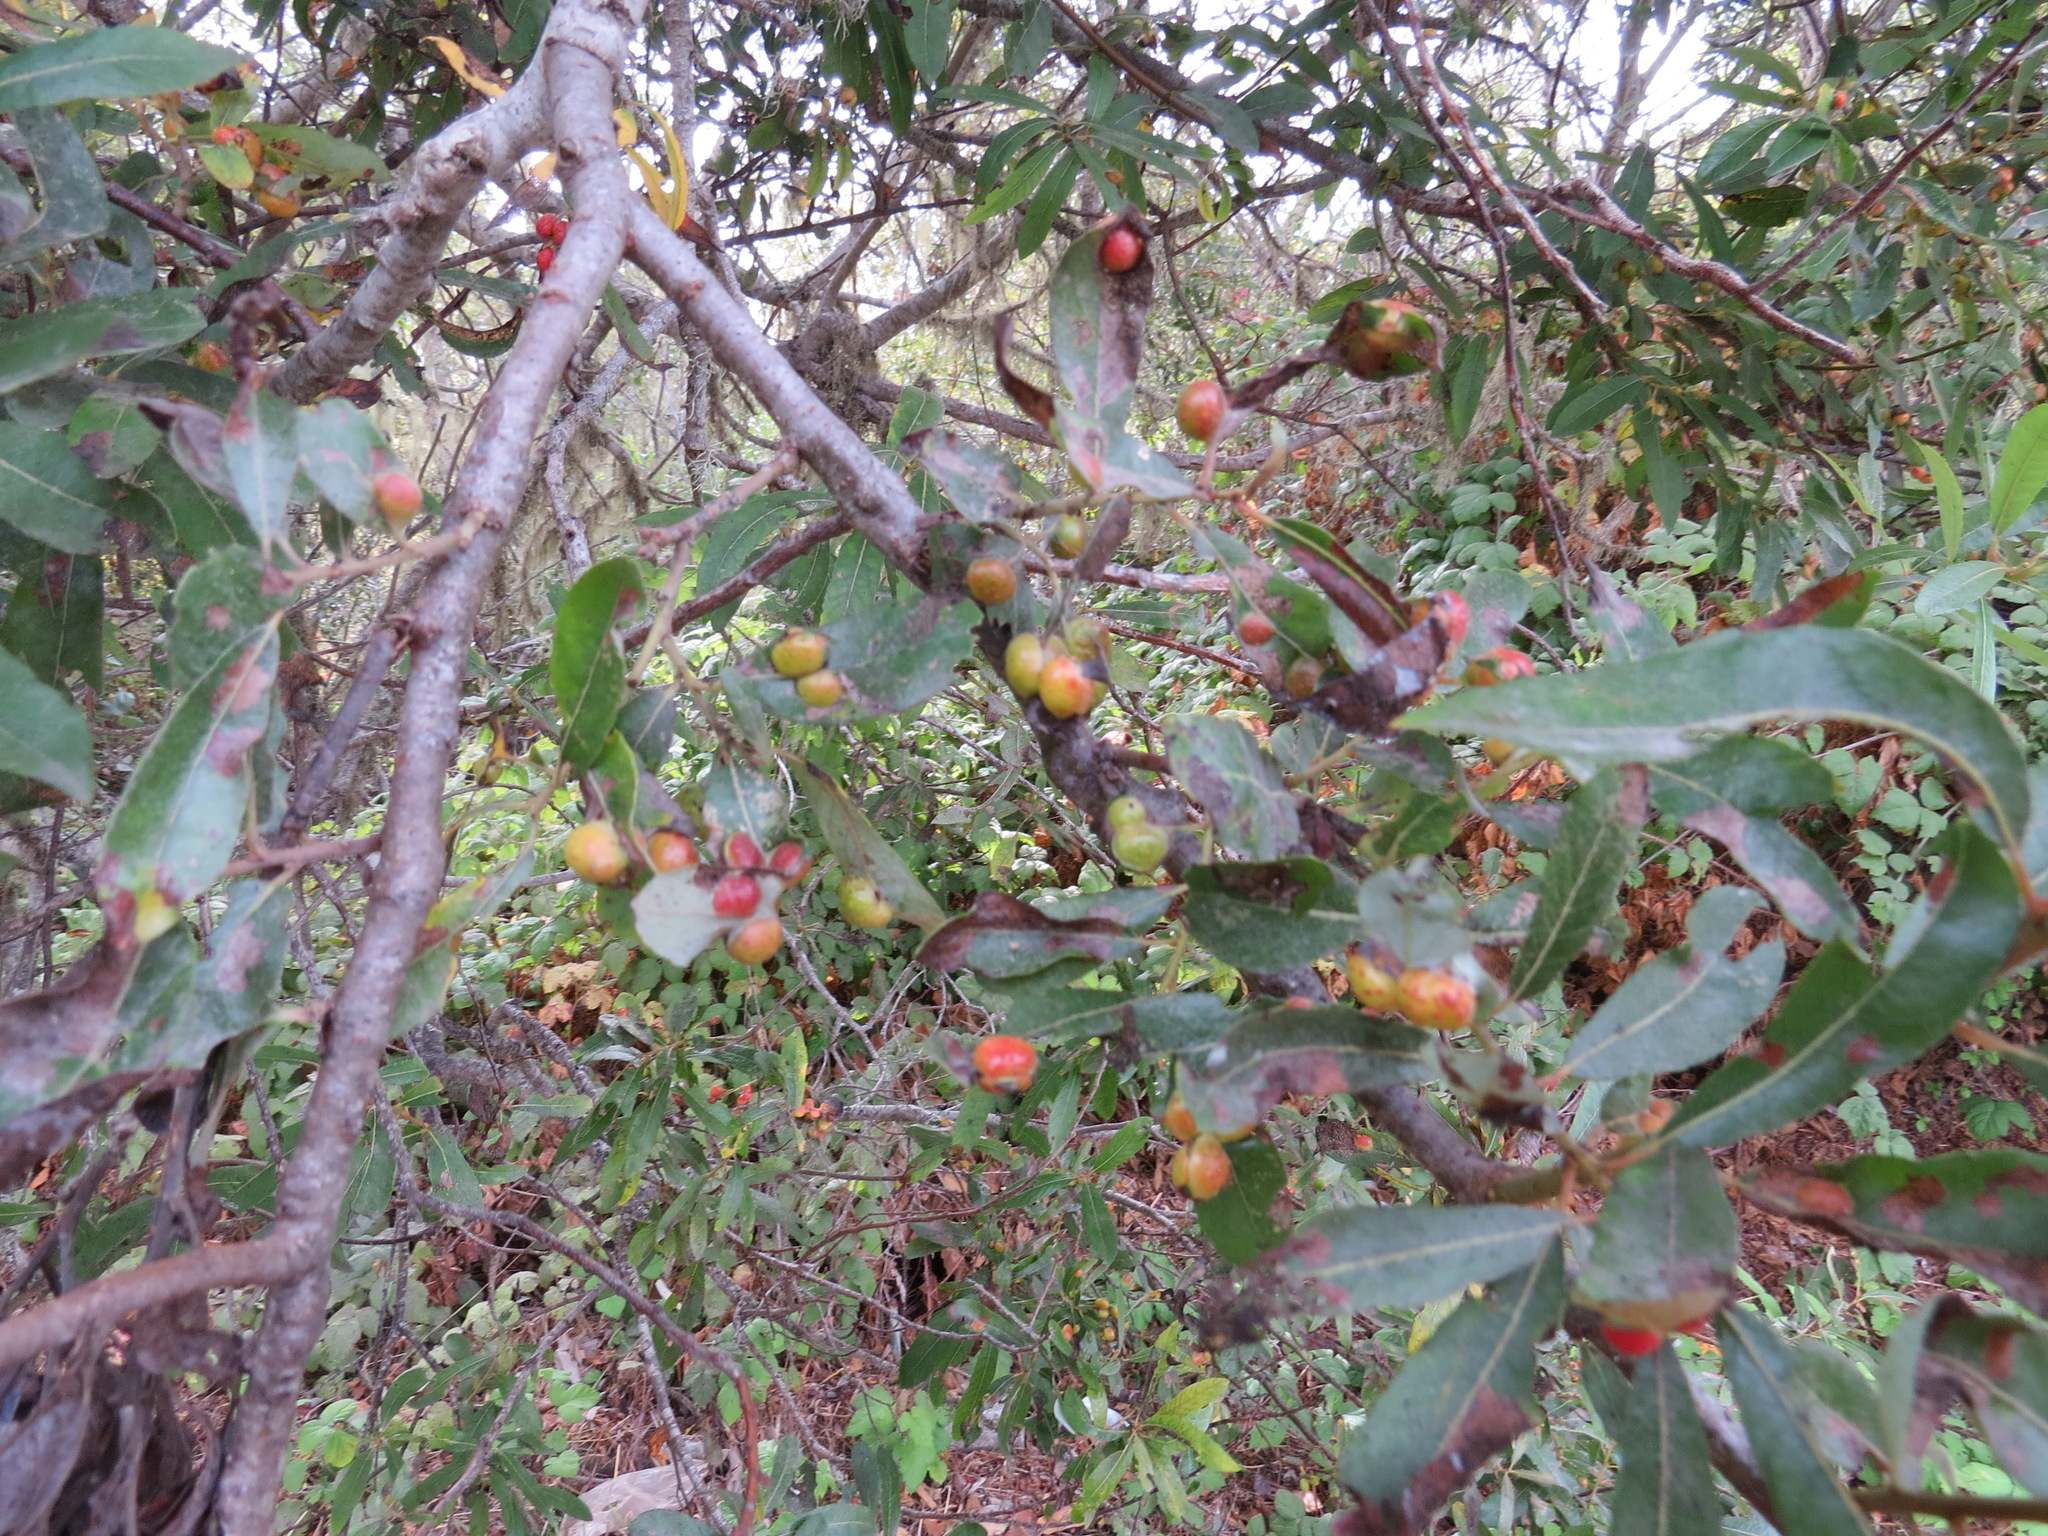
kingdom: Animalia
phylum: Arthropoda
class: Insecta
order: Hymenoptera
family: Tenthredinidae
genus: Euura
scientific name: Euura
